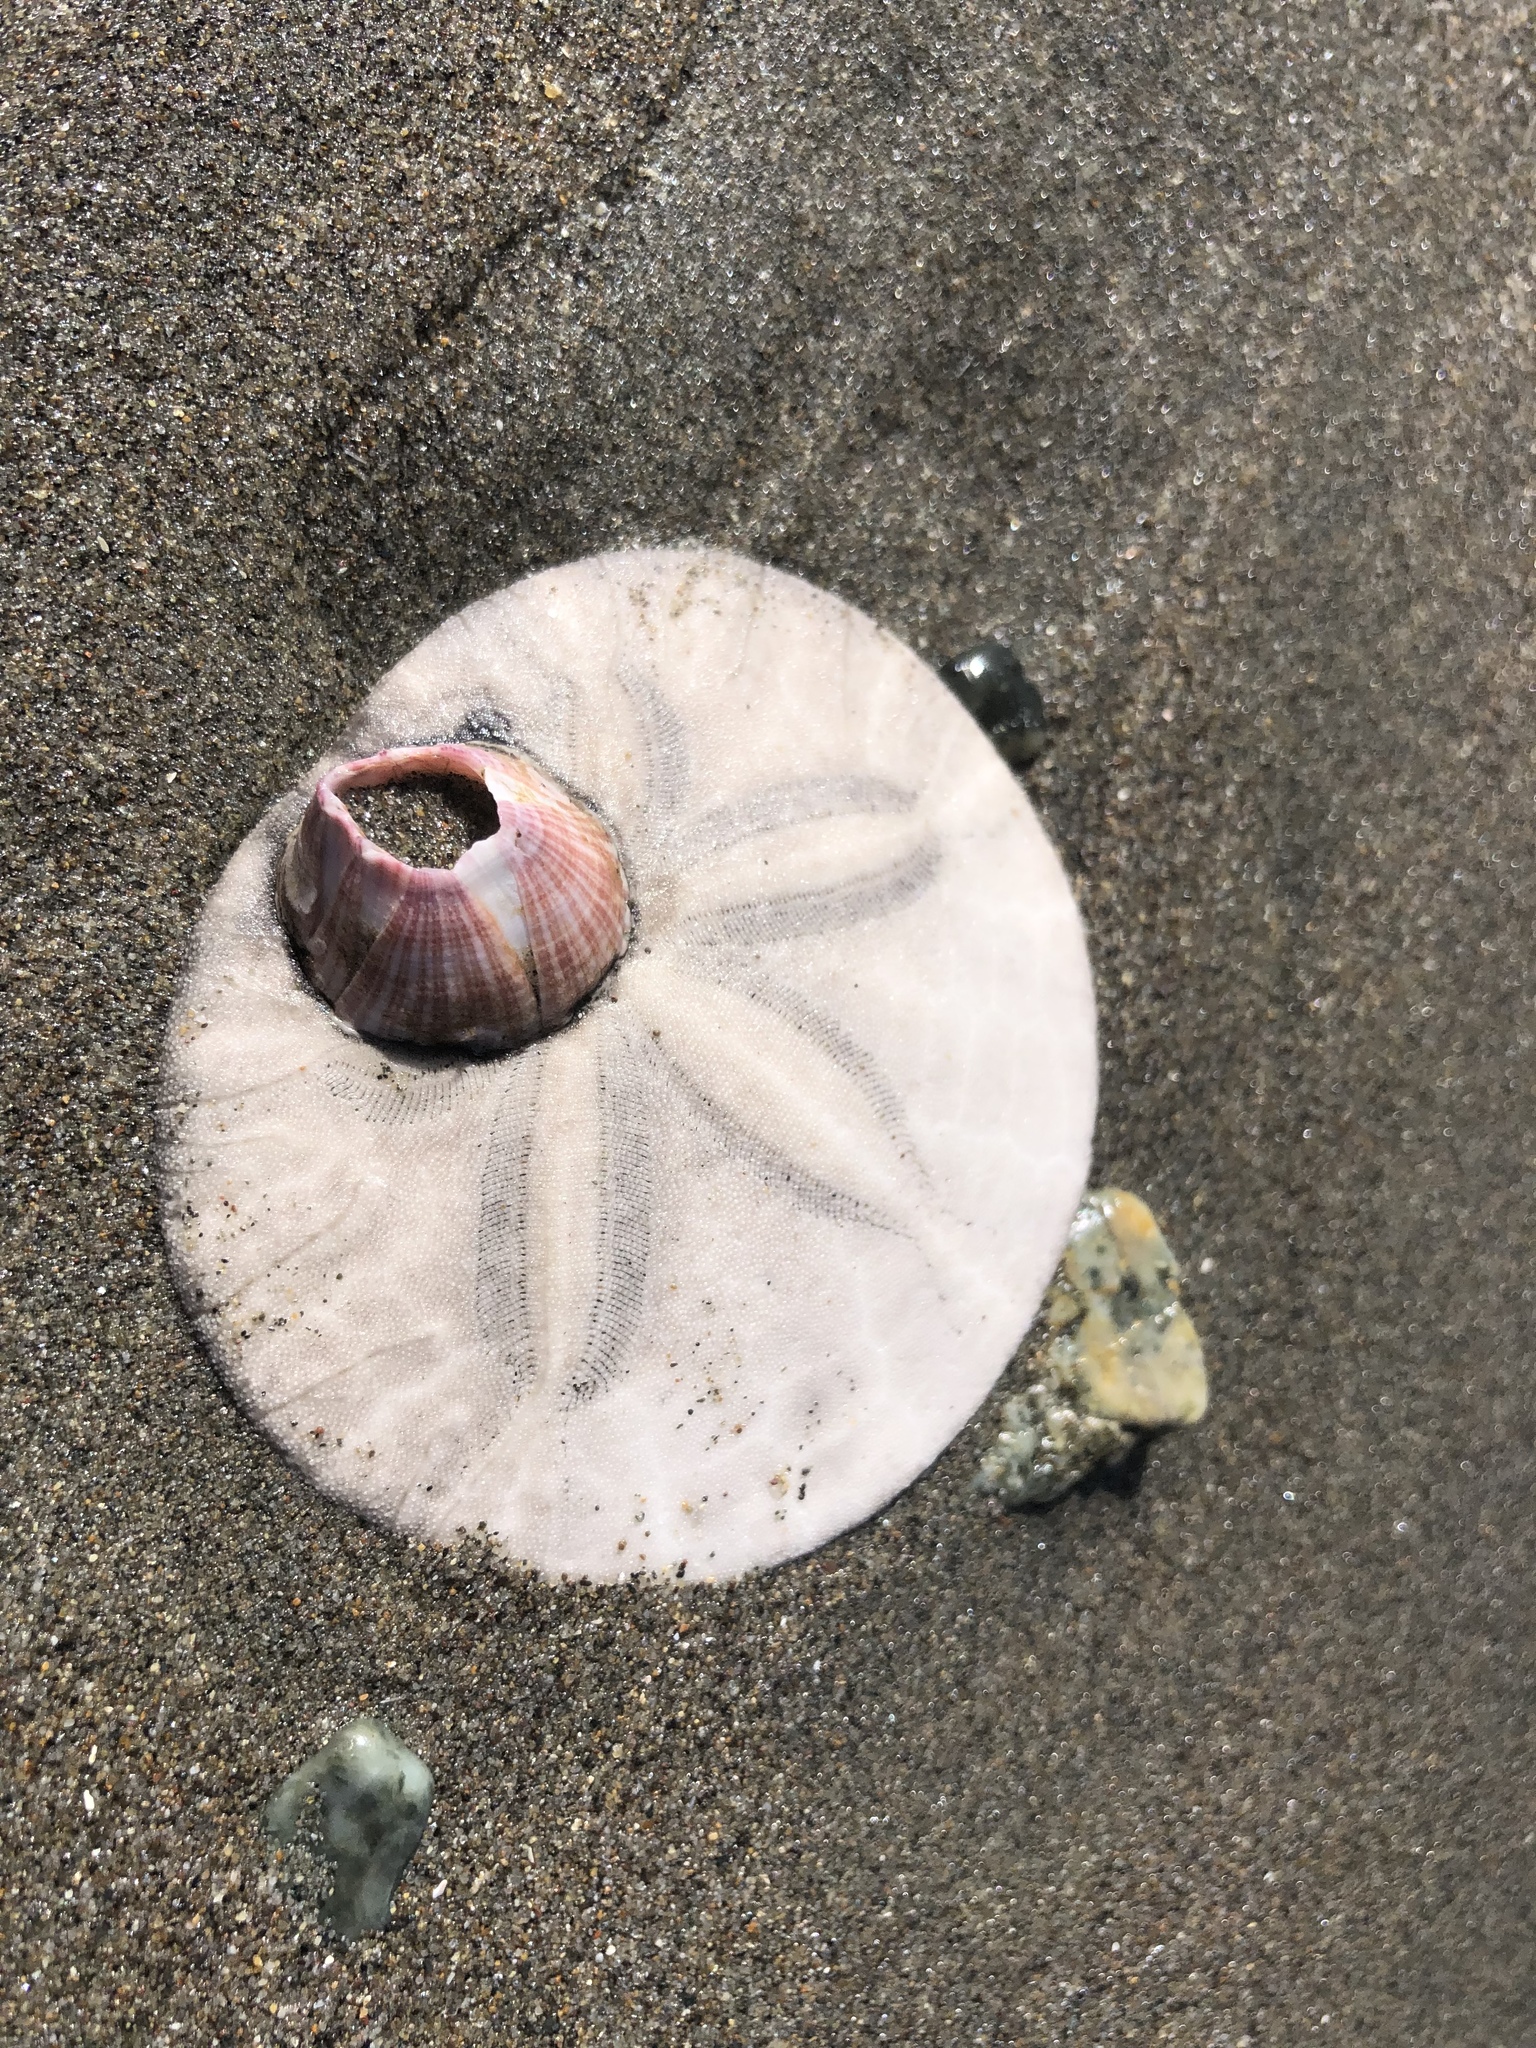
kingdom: Animalia
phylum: Echinodermata
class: Echinoidea
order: Echinolampadacea
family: Dendrasteridae
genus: Dendraster
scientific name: Dendraster excentricus
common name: Eccentric sand dollar sea urchin
